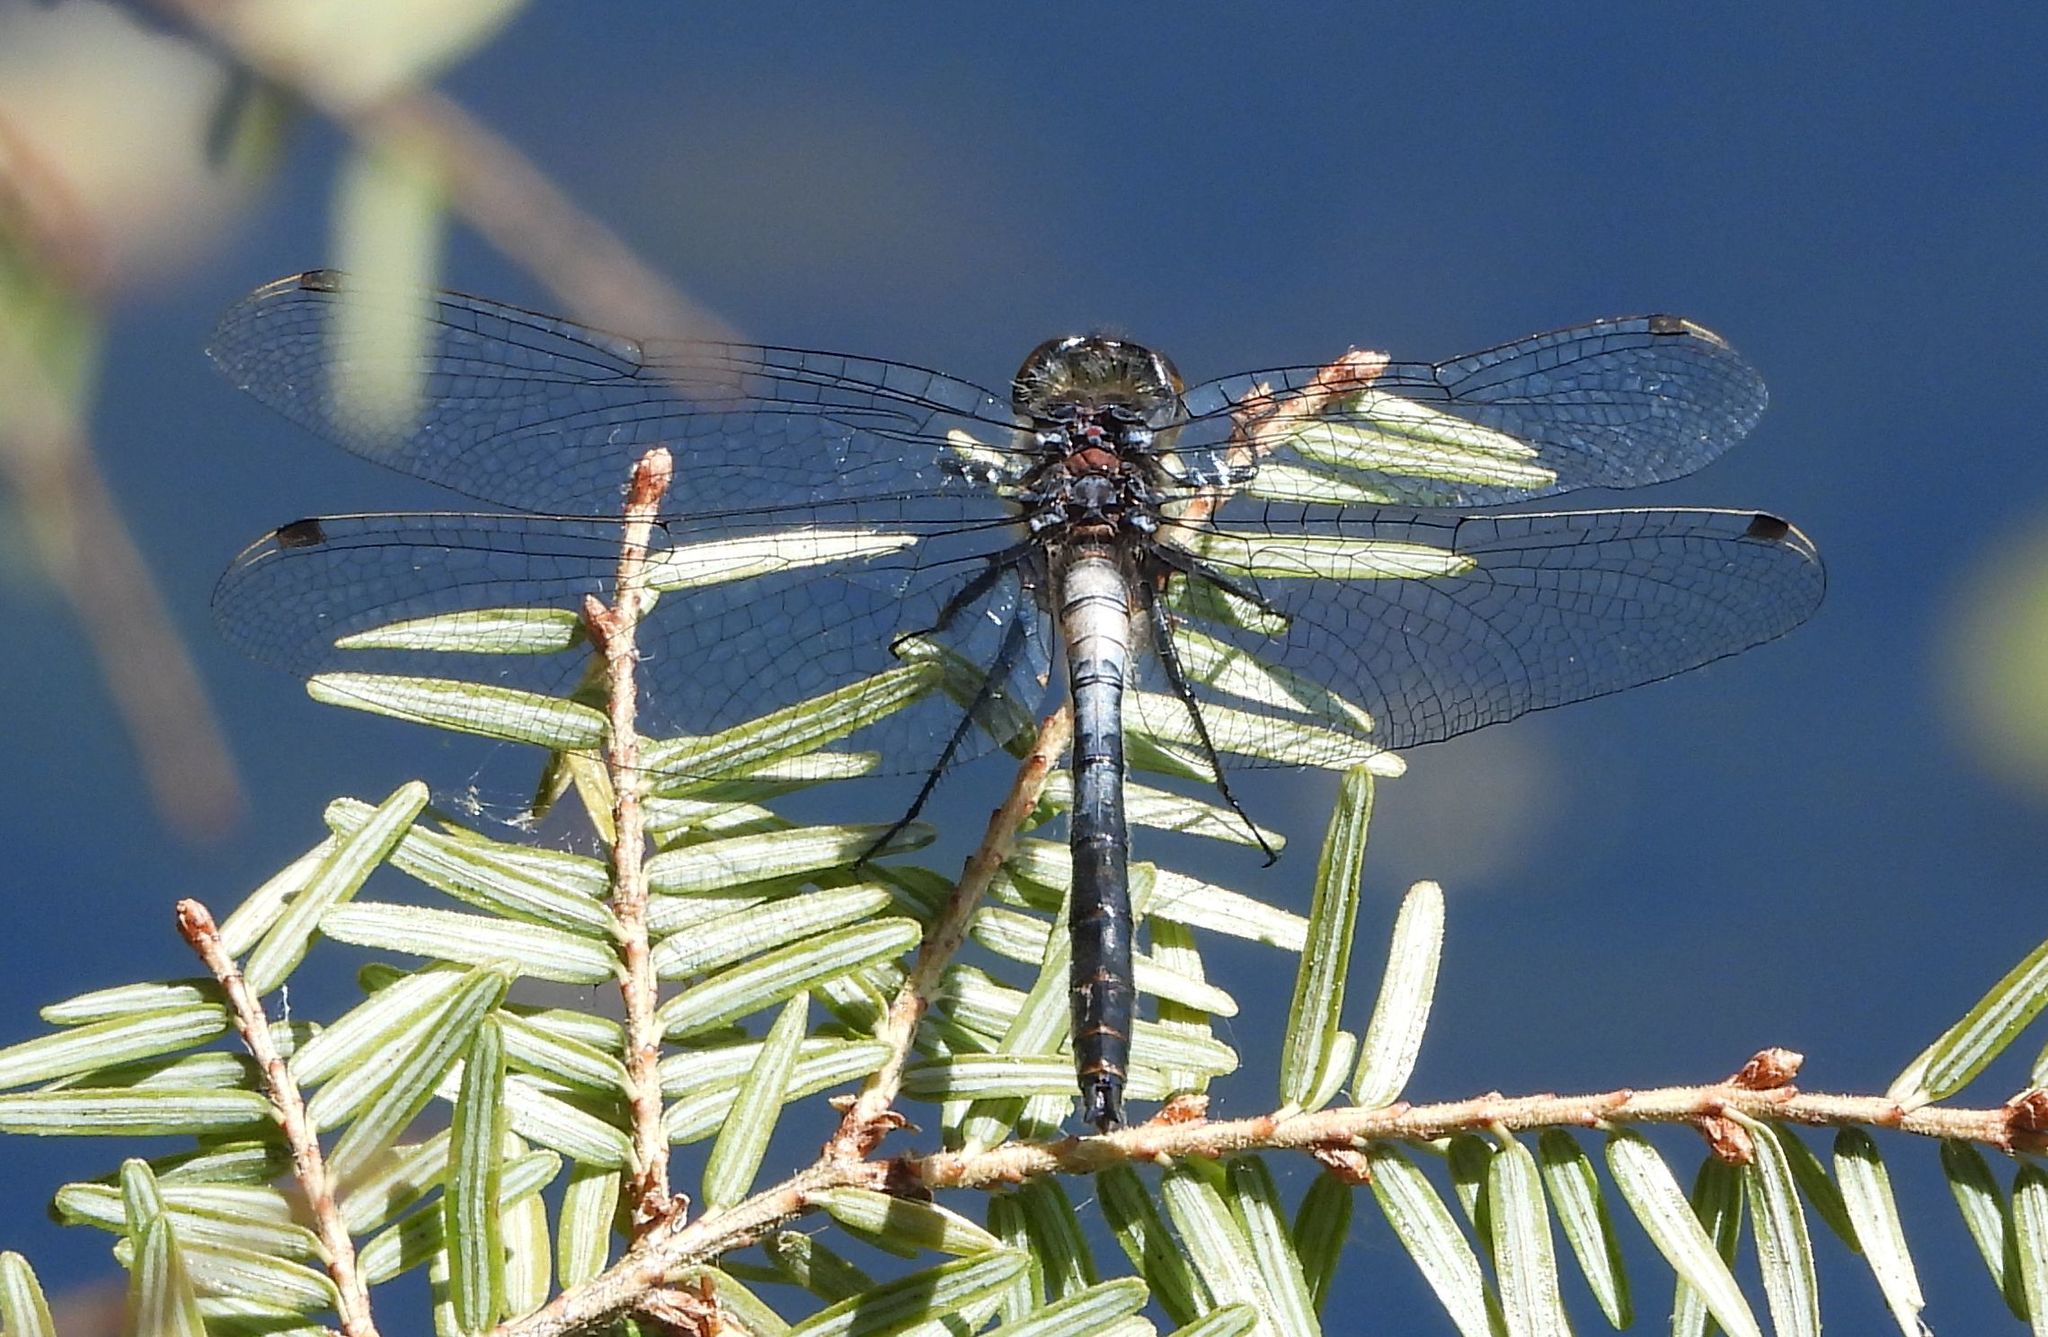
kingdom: Animalia
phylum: Arthropoda
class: Insecta
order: Odonata
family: Libellulidae
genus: Leucorrhinia
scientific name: Leucorrhinia proxima
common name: Belted whiteface
